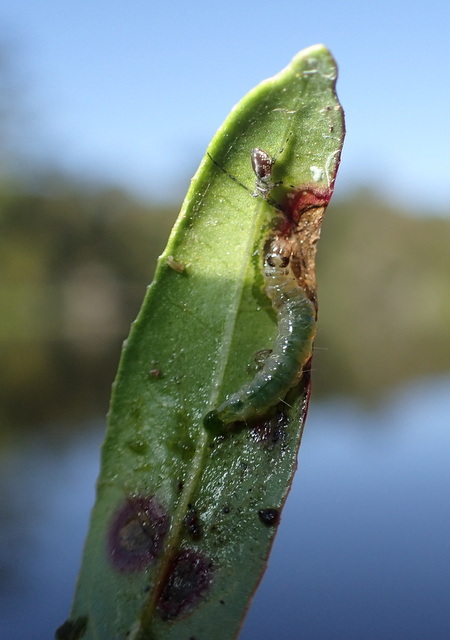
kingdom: Animalia
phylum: Arthropoda
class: Insecta
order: Coleoptera
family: Chrysomelidae
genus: Agasicles
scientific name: Agasicles hygrophila
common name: Alligatorweed flea beetle
